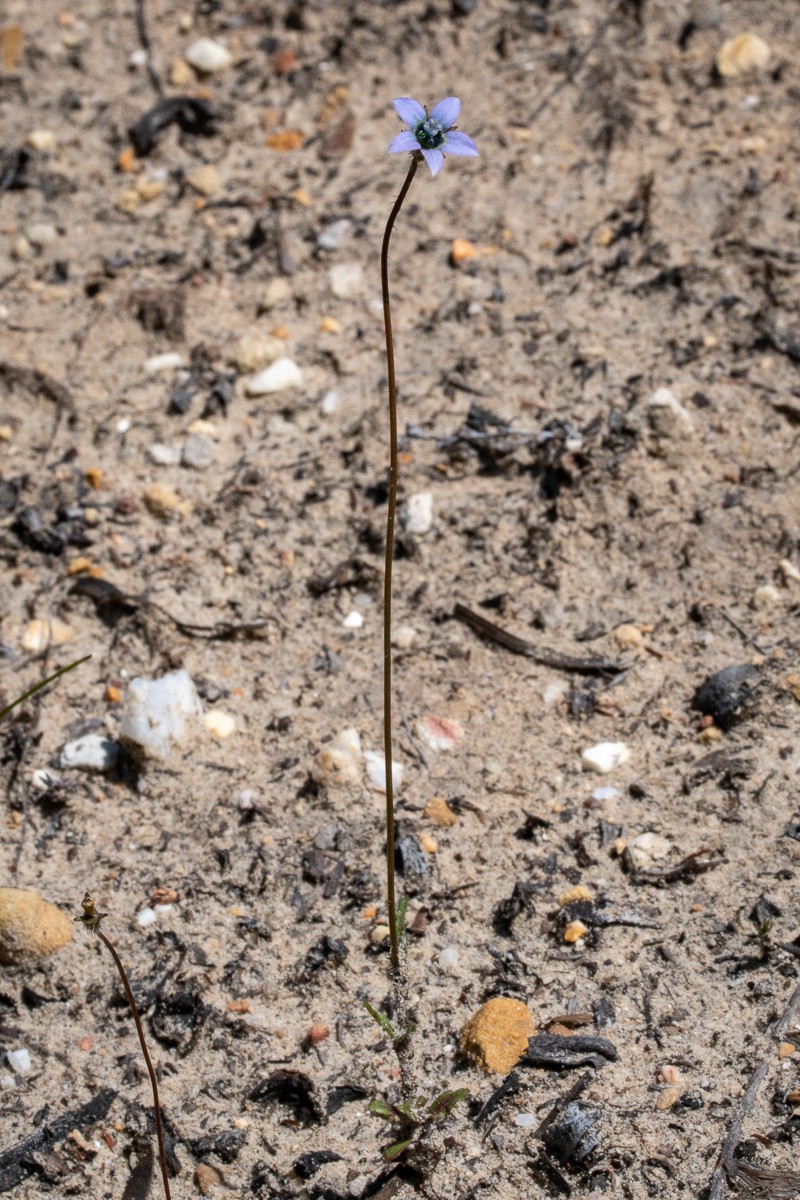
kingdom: Plantae
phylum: Tracheophyta
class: Magnoliopsida
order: Asterales
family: Campanulaceae
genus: Wahlenbergia
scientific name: Wahlenbergia capensis
